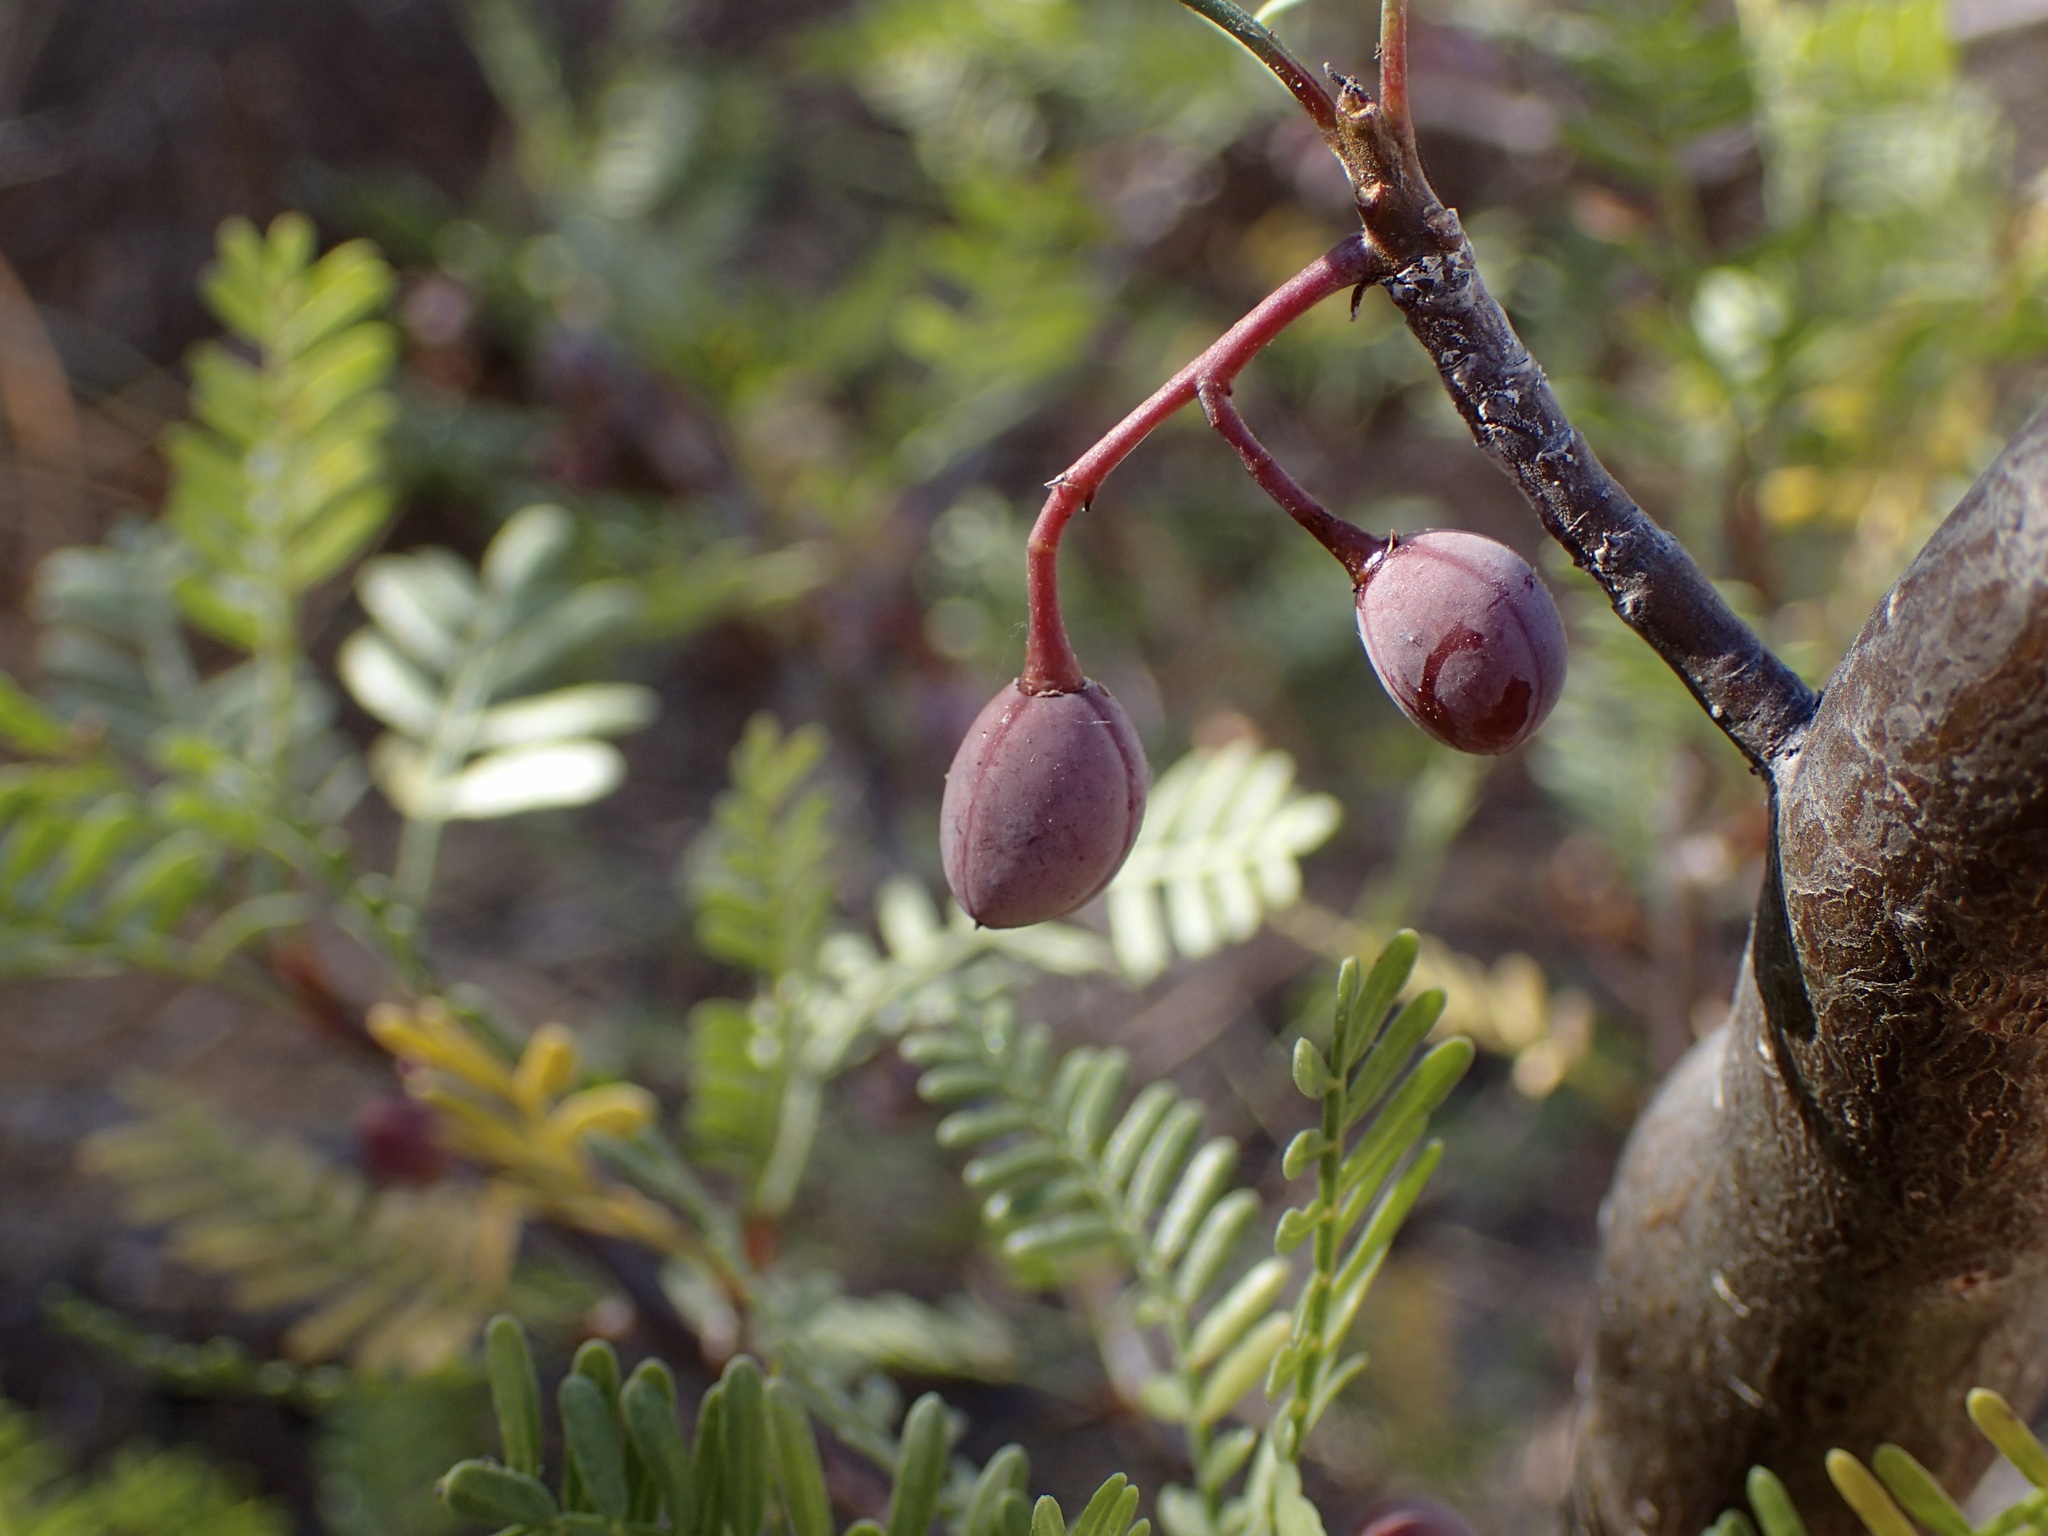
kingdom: Plantae
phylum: Tracheophyta
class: Magnoliopsida
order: Sapindales
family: Burseraceae
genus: Bursera
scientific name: Bursera microphylla
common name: Elephant tree
